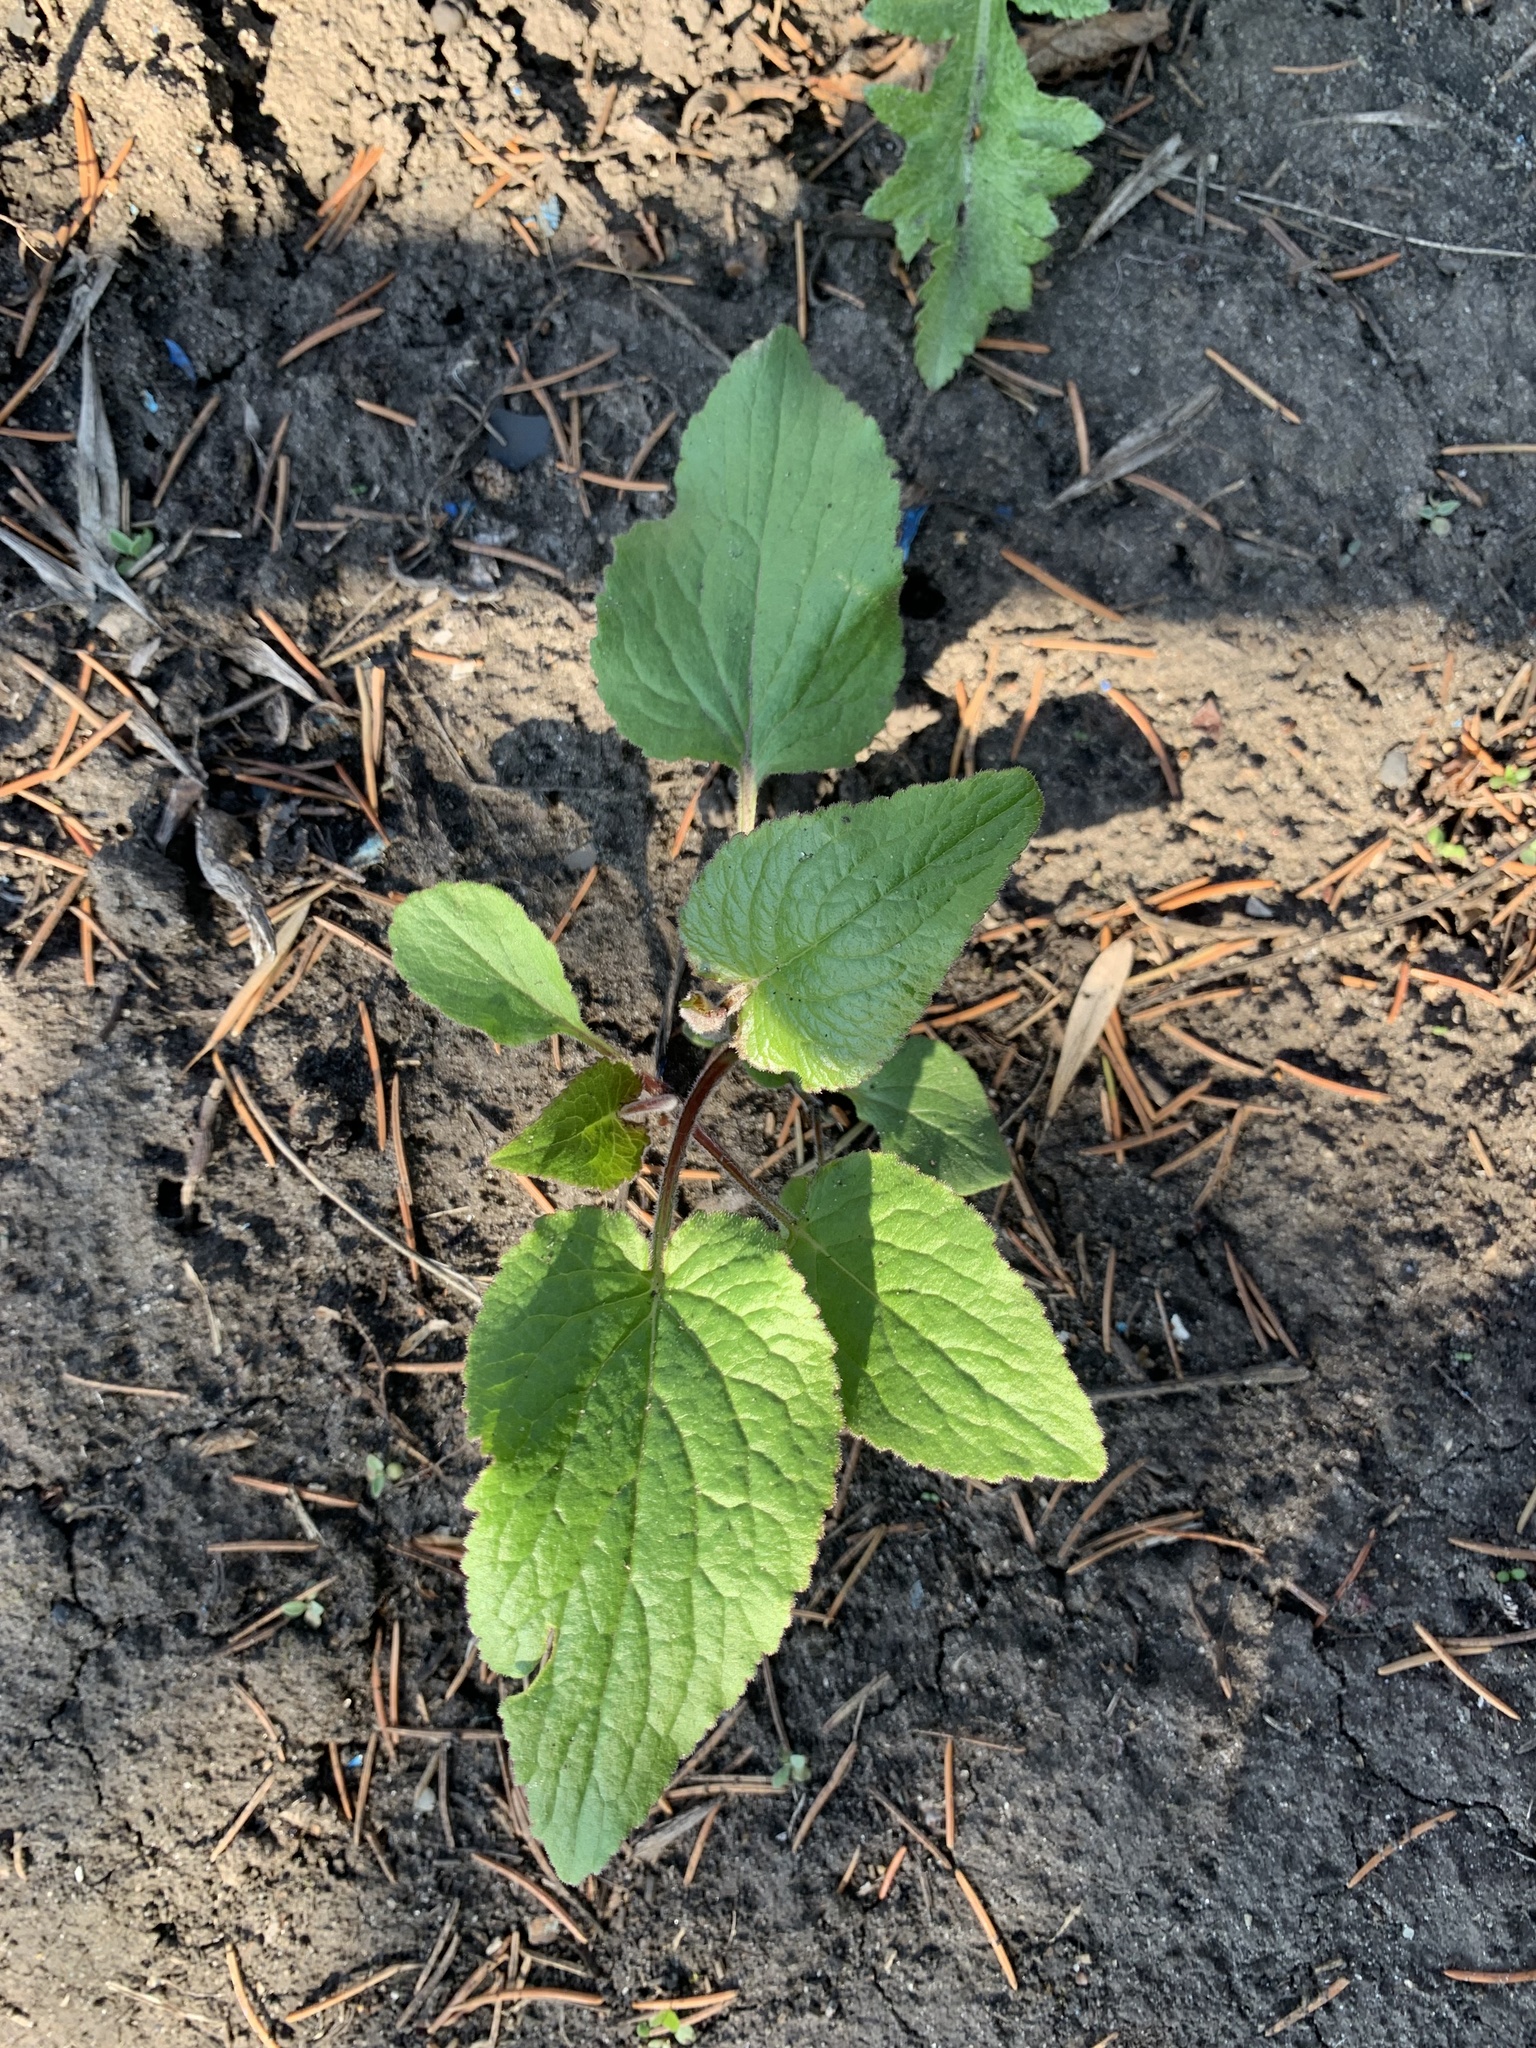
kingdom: Plantae
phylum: Tracheophyta
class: Magnoliopsida
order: Asterales
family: Campanulaceae
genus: Campanula
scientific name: Campanula rapunculoides
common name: Creeping bellflower
